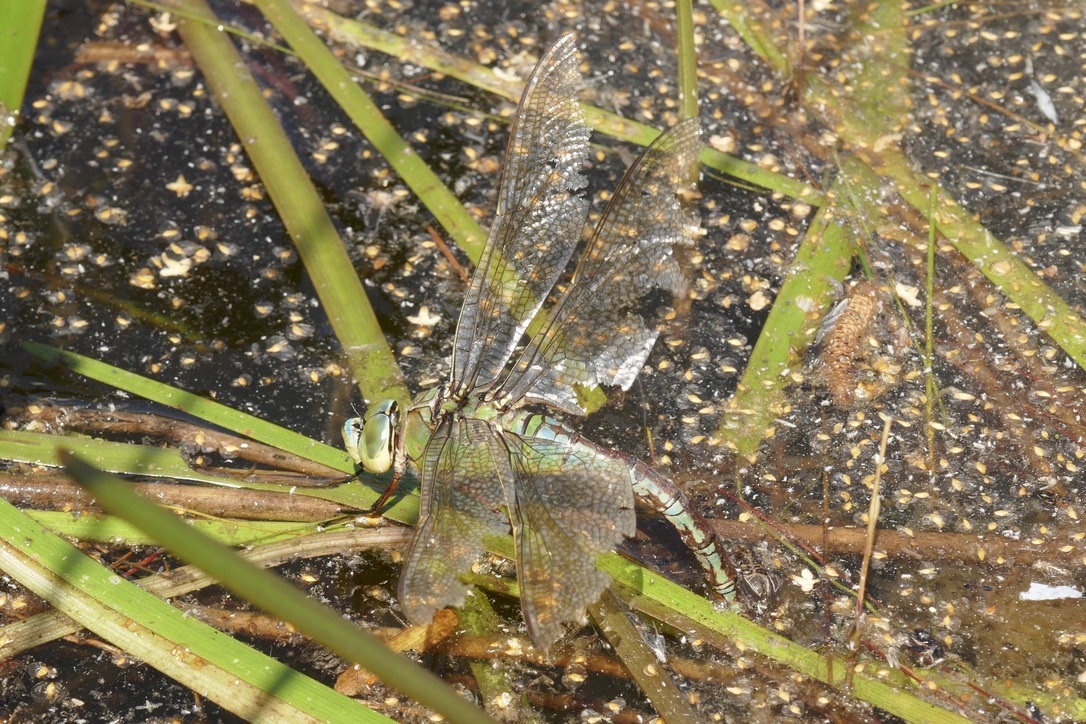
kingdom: Animalia
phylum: Arthropoda
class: Insecta
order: Odonata
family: Aeshnidae
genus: Anax
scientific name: Anax imperator
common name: Emperor dragonfly
